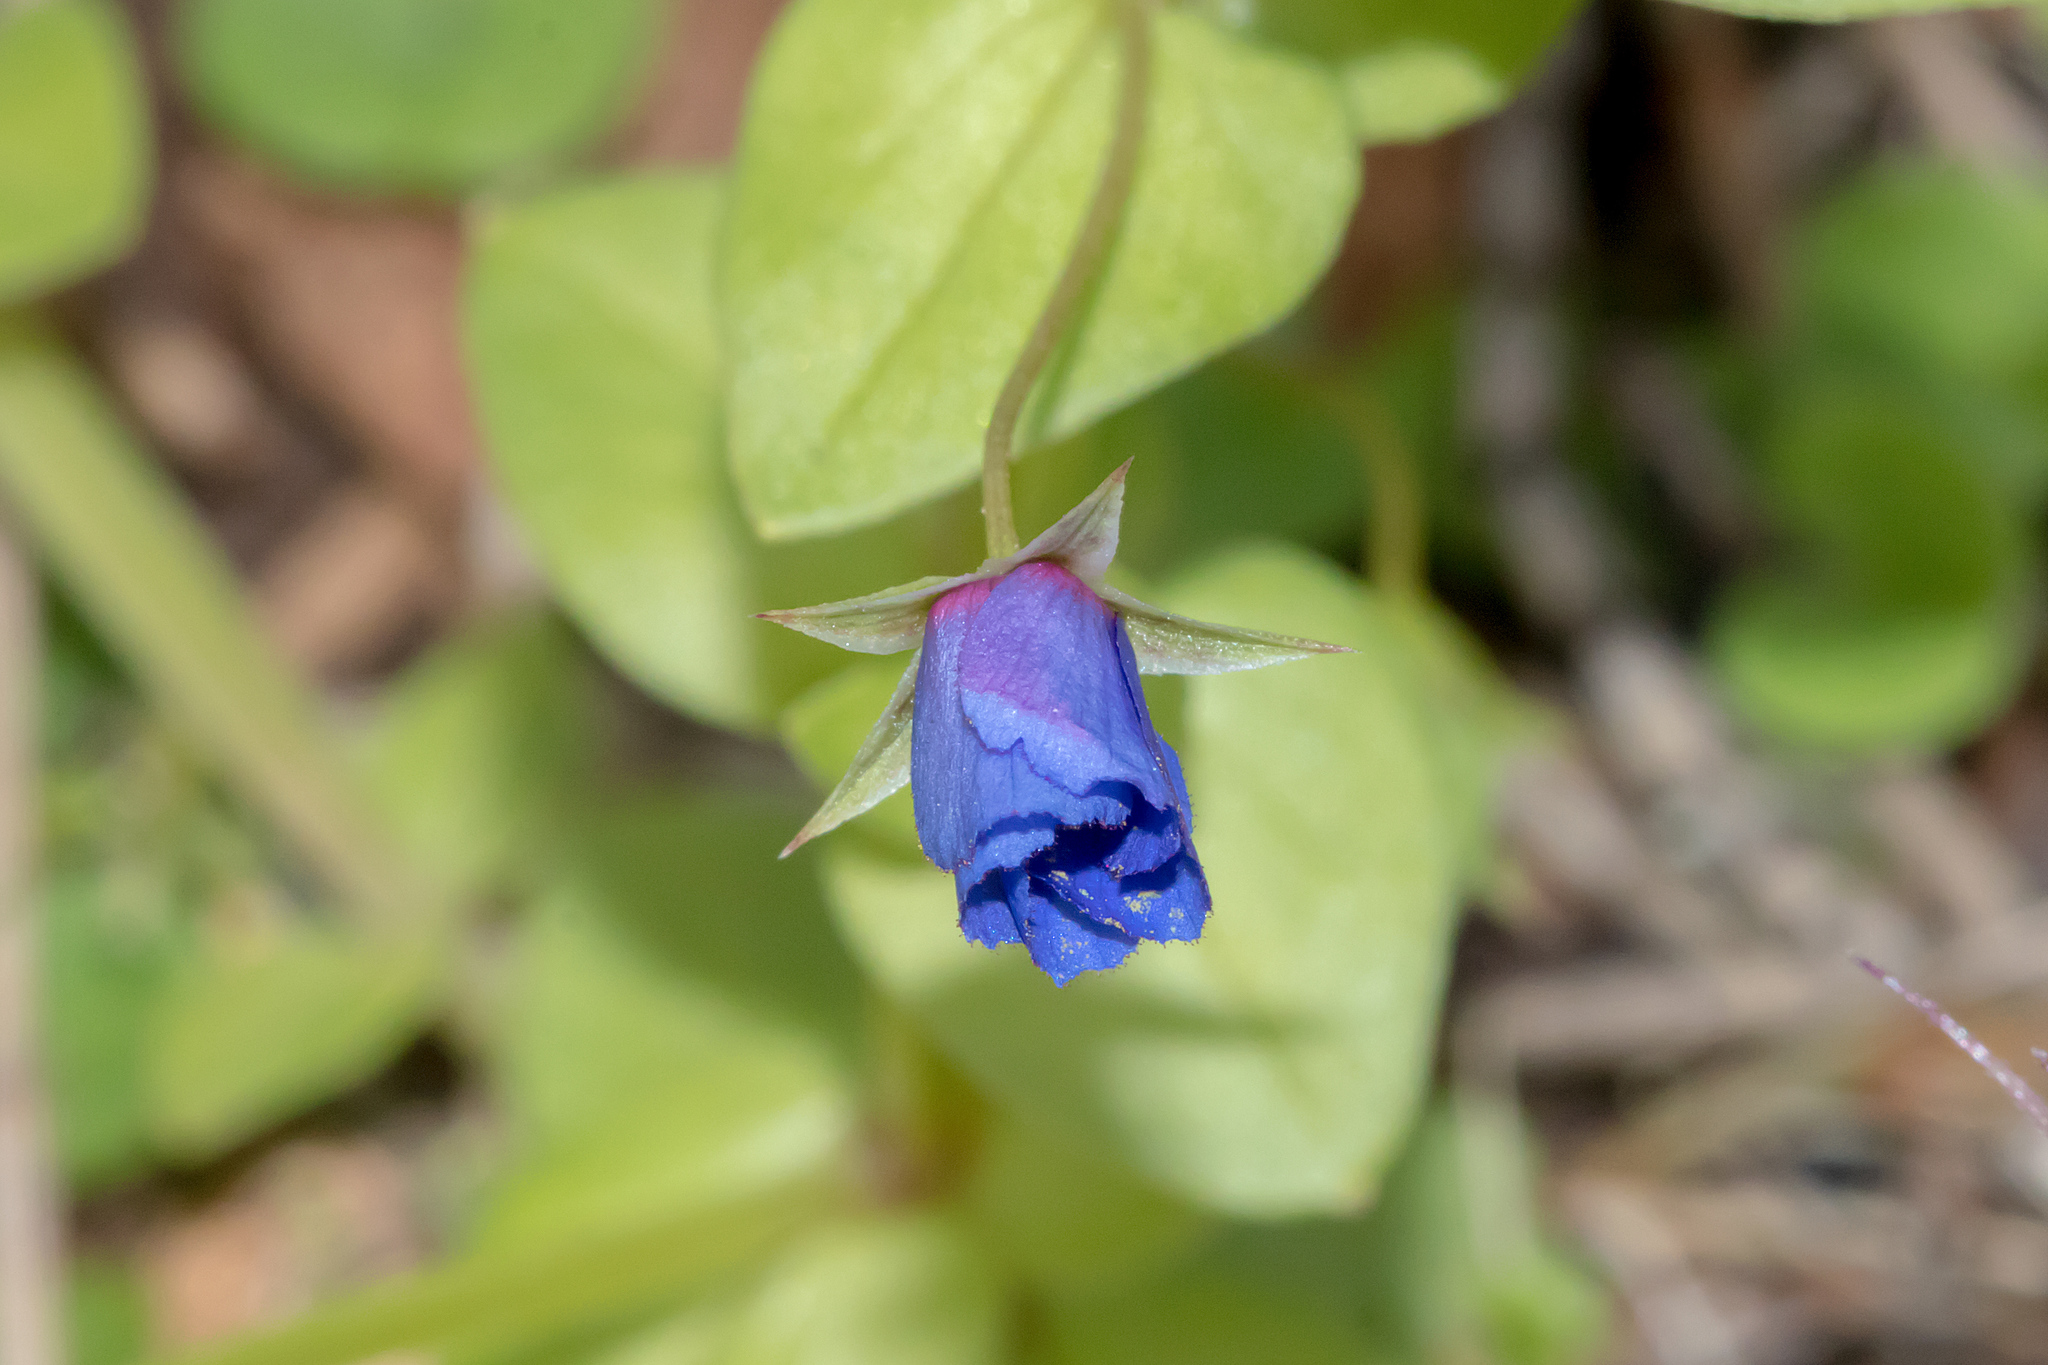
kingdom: Plantae
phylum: Tracheophyta
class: Magnoliopsida
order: Ericales
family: Primulaceae
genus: Lysimachia
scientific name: Lysimachia loeflingii
